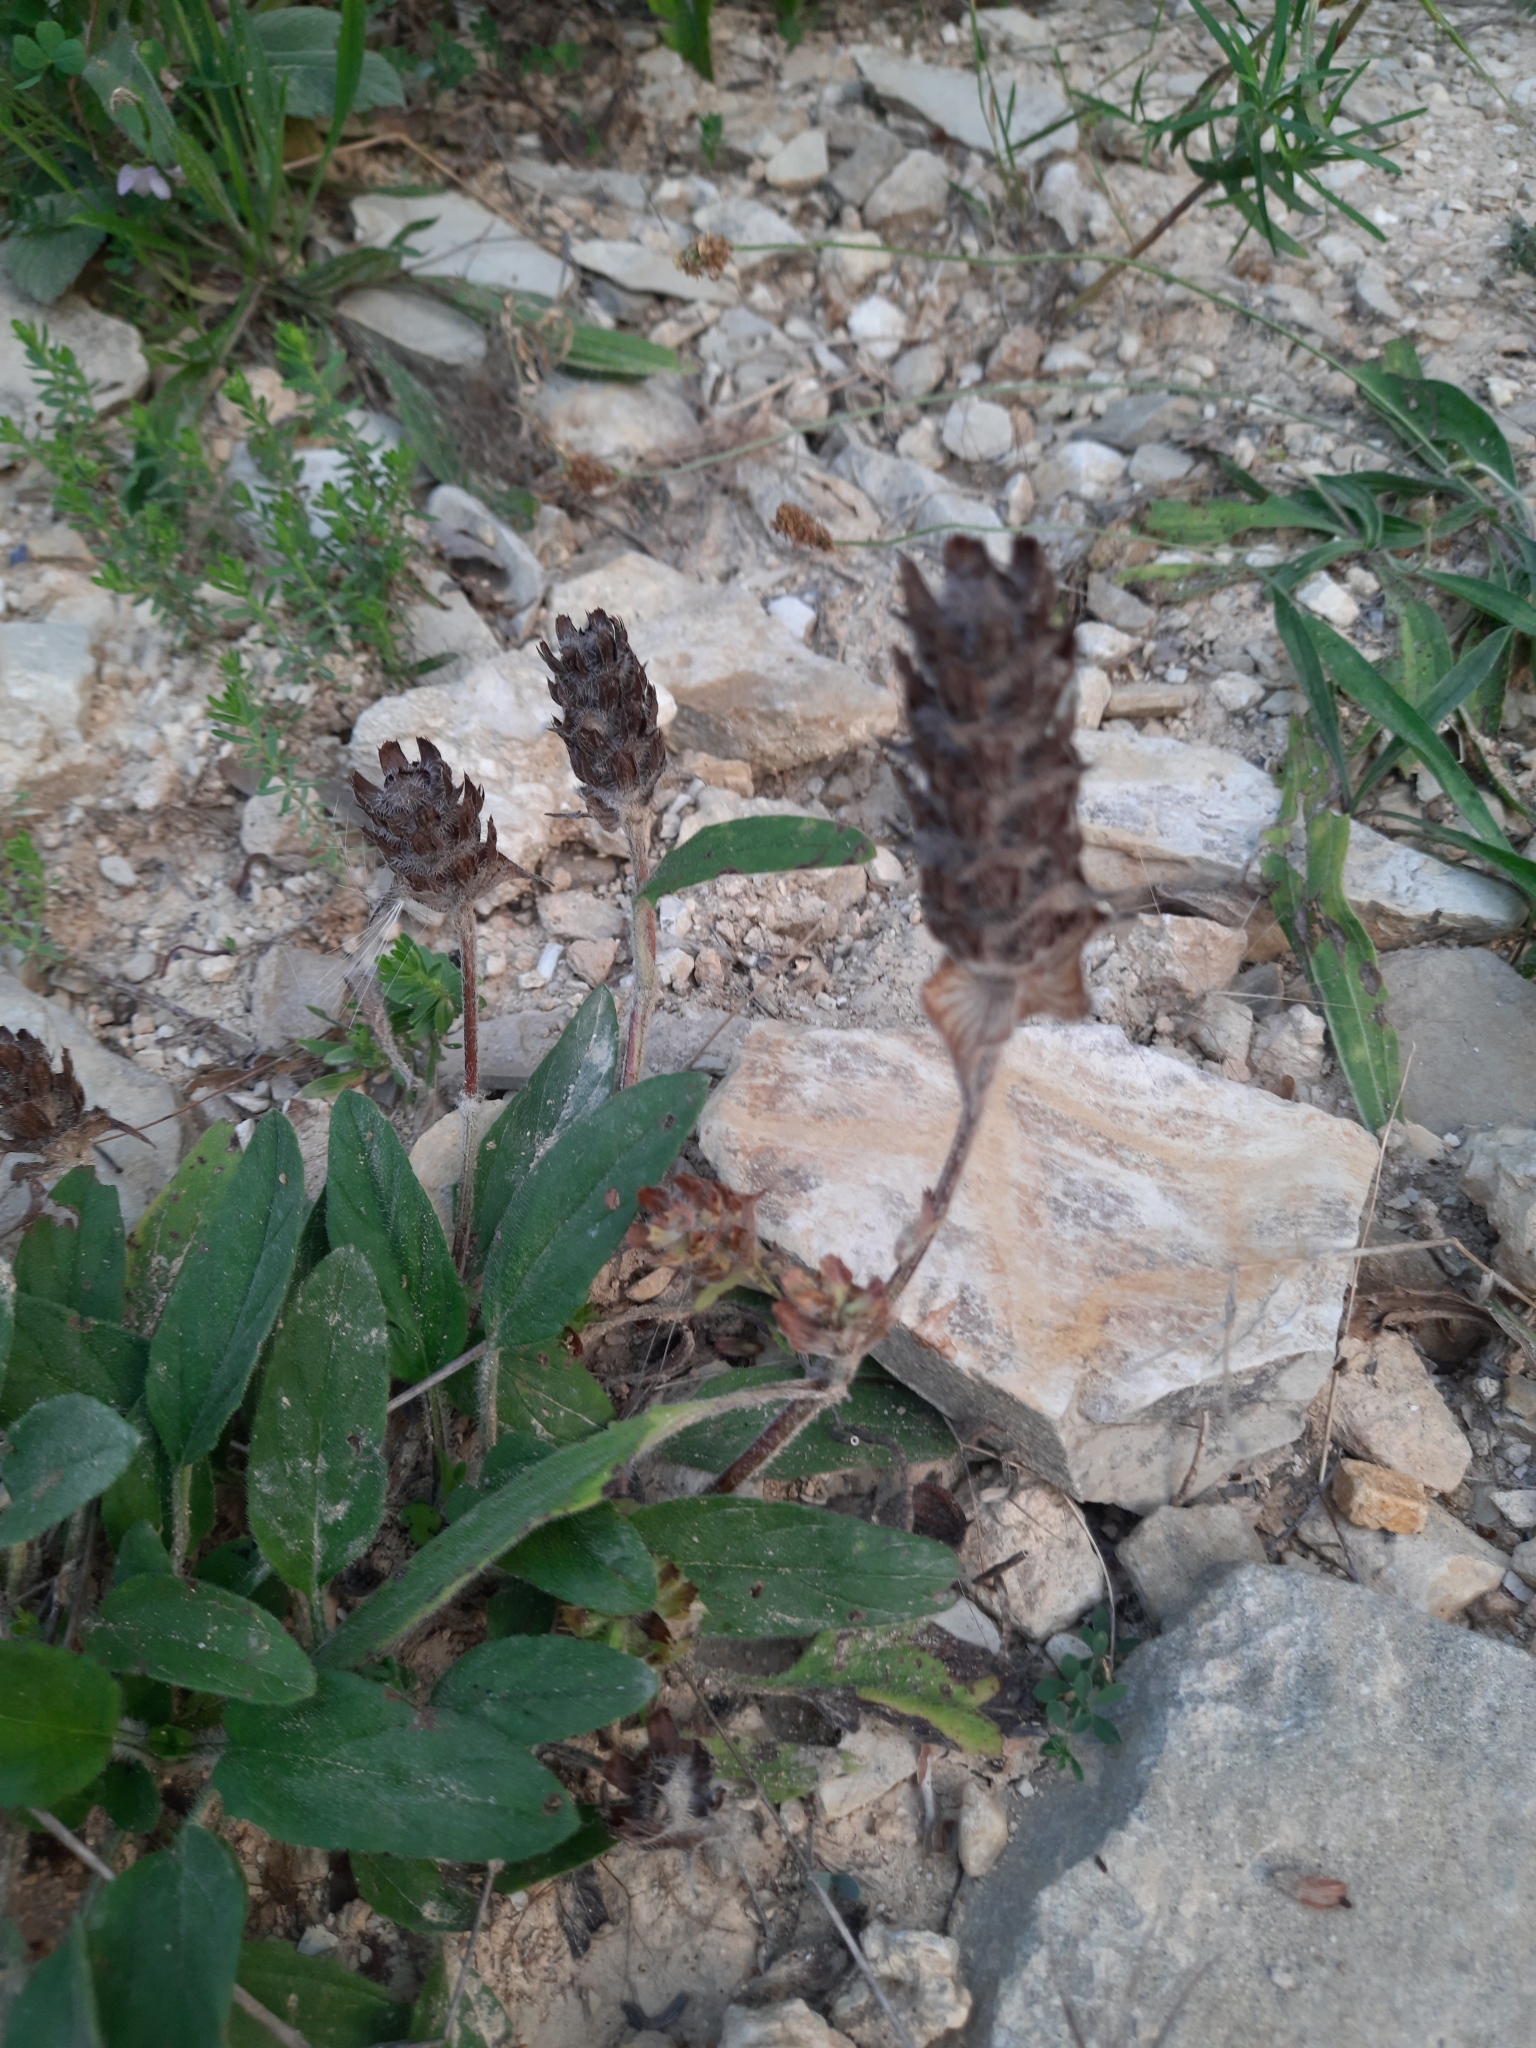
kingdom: Plantae
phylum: Tracheophyta
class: Magnoliopsida
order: Lamiales
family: Lamiaceae
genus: Prunella
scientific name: Prunella vulgaris
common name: Heal-all
